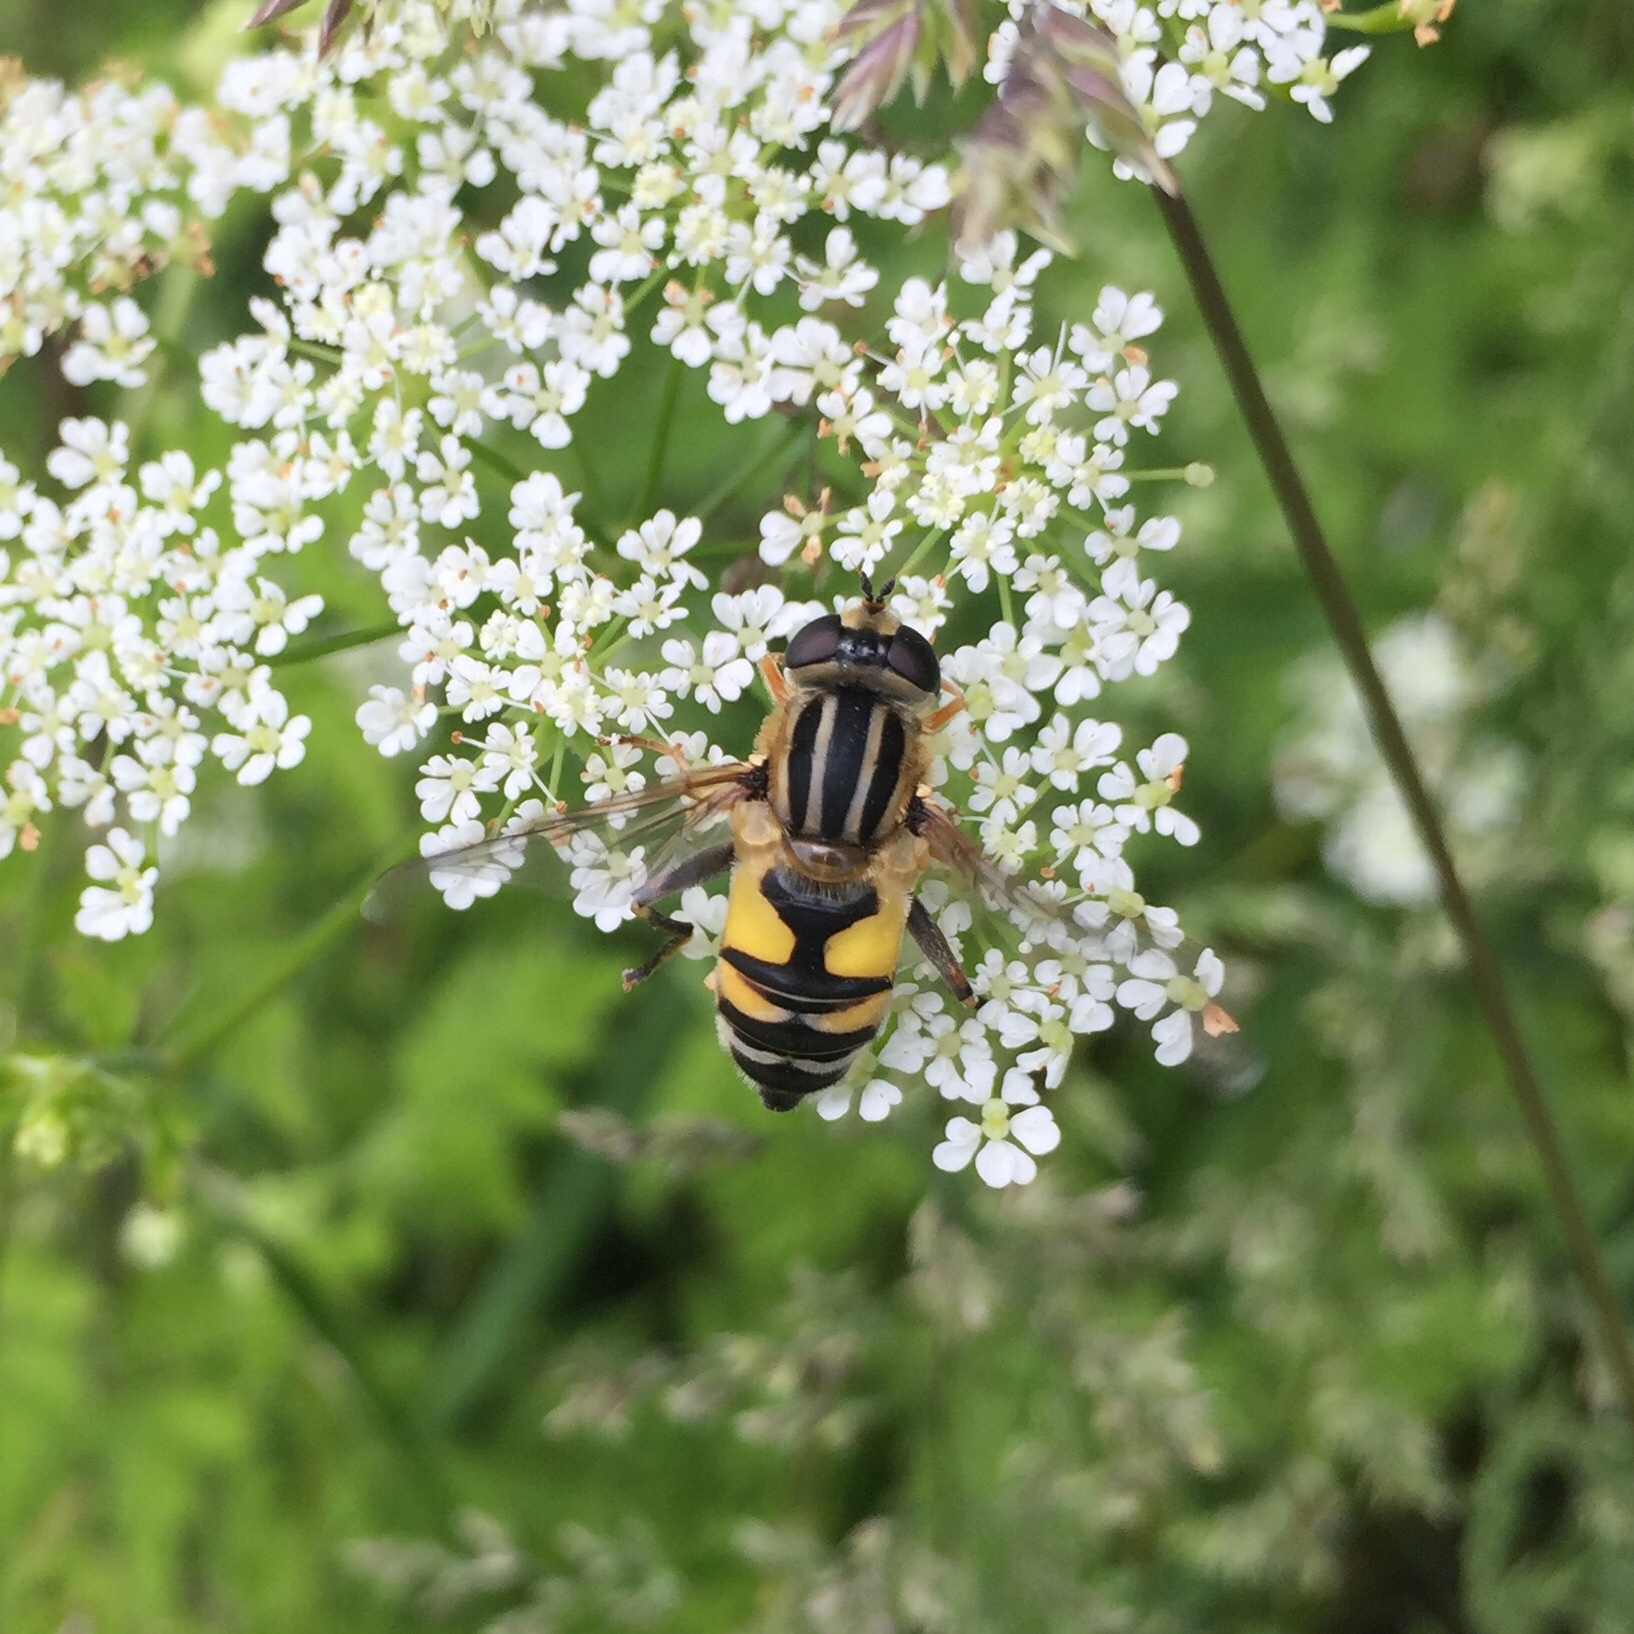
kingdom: Animalia
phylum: Arthropoda
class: Insecta
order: Diptera
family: Syrphidae
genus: Helophilus
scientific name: Helophilus trivittatus
